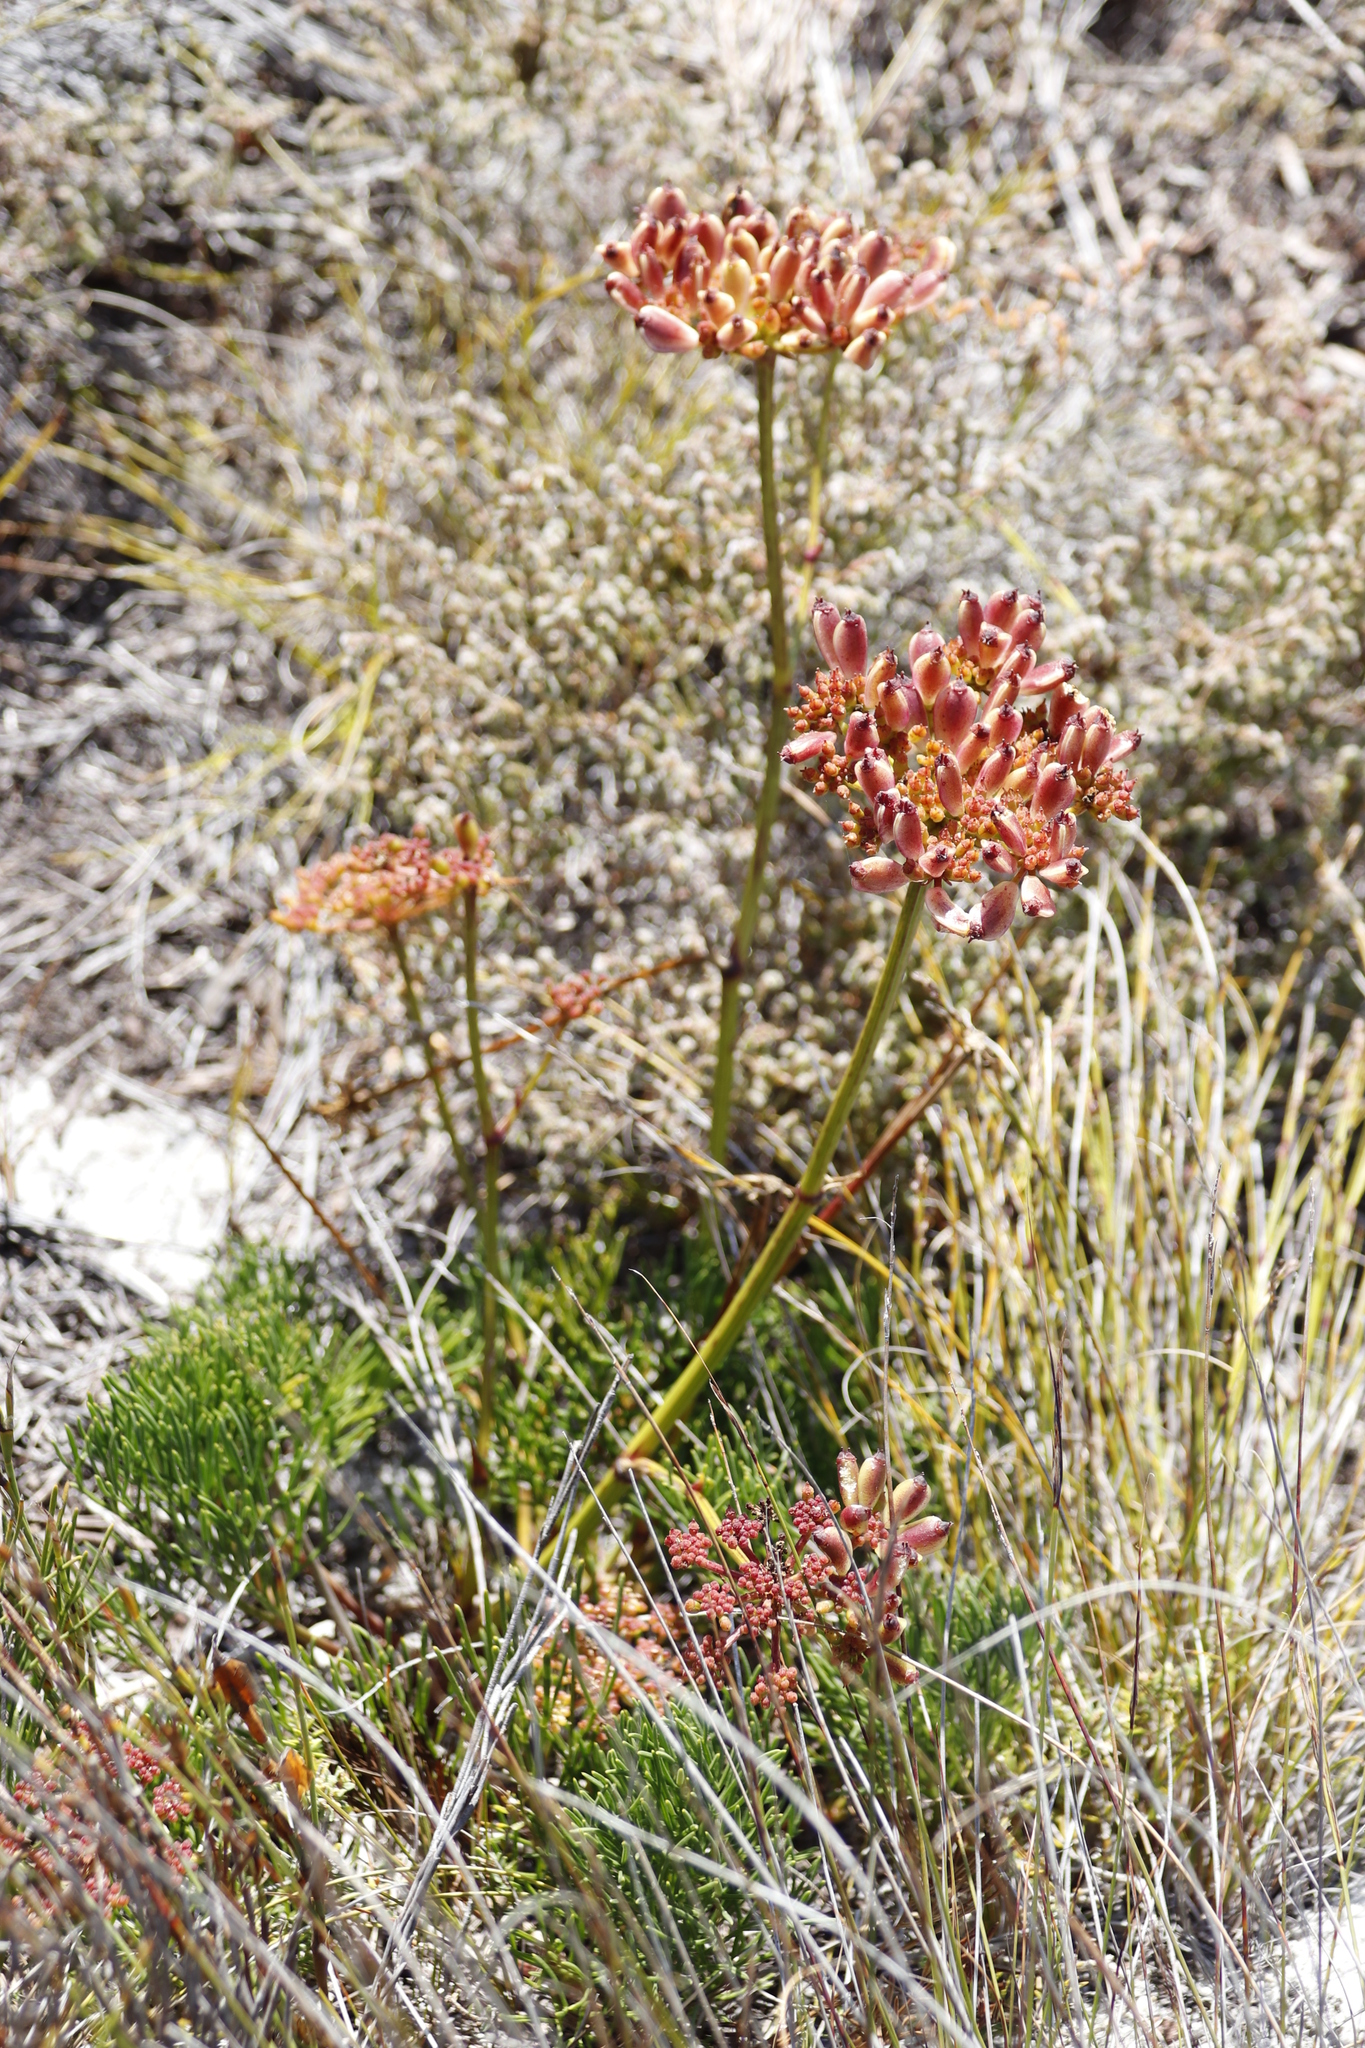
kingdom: Plantae
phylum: Tracheophyta
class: Magnoliopsida
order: Apiales
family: Apiaceae
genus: Nanobubon
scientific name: Nanobubon strictum
